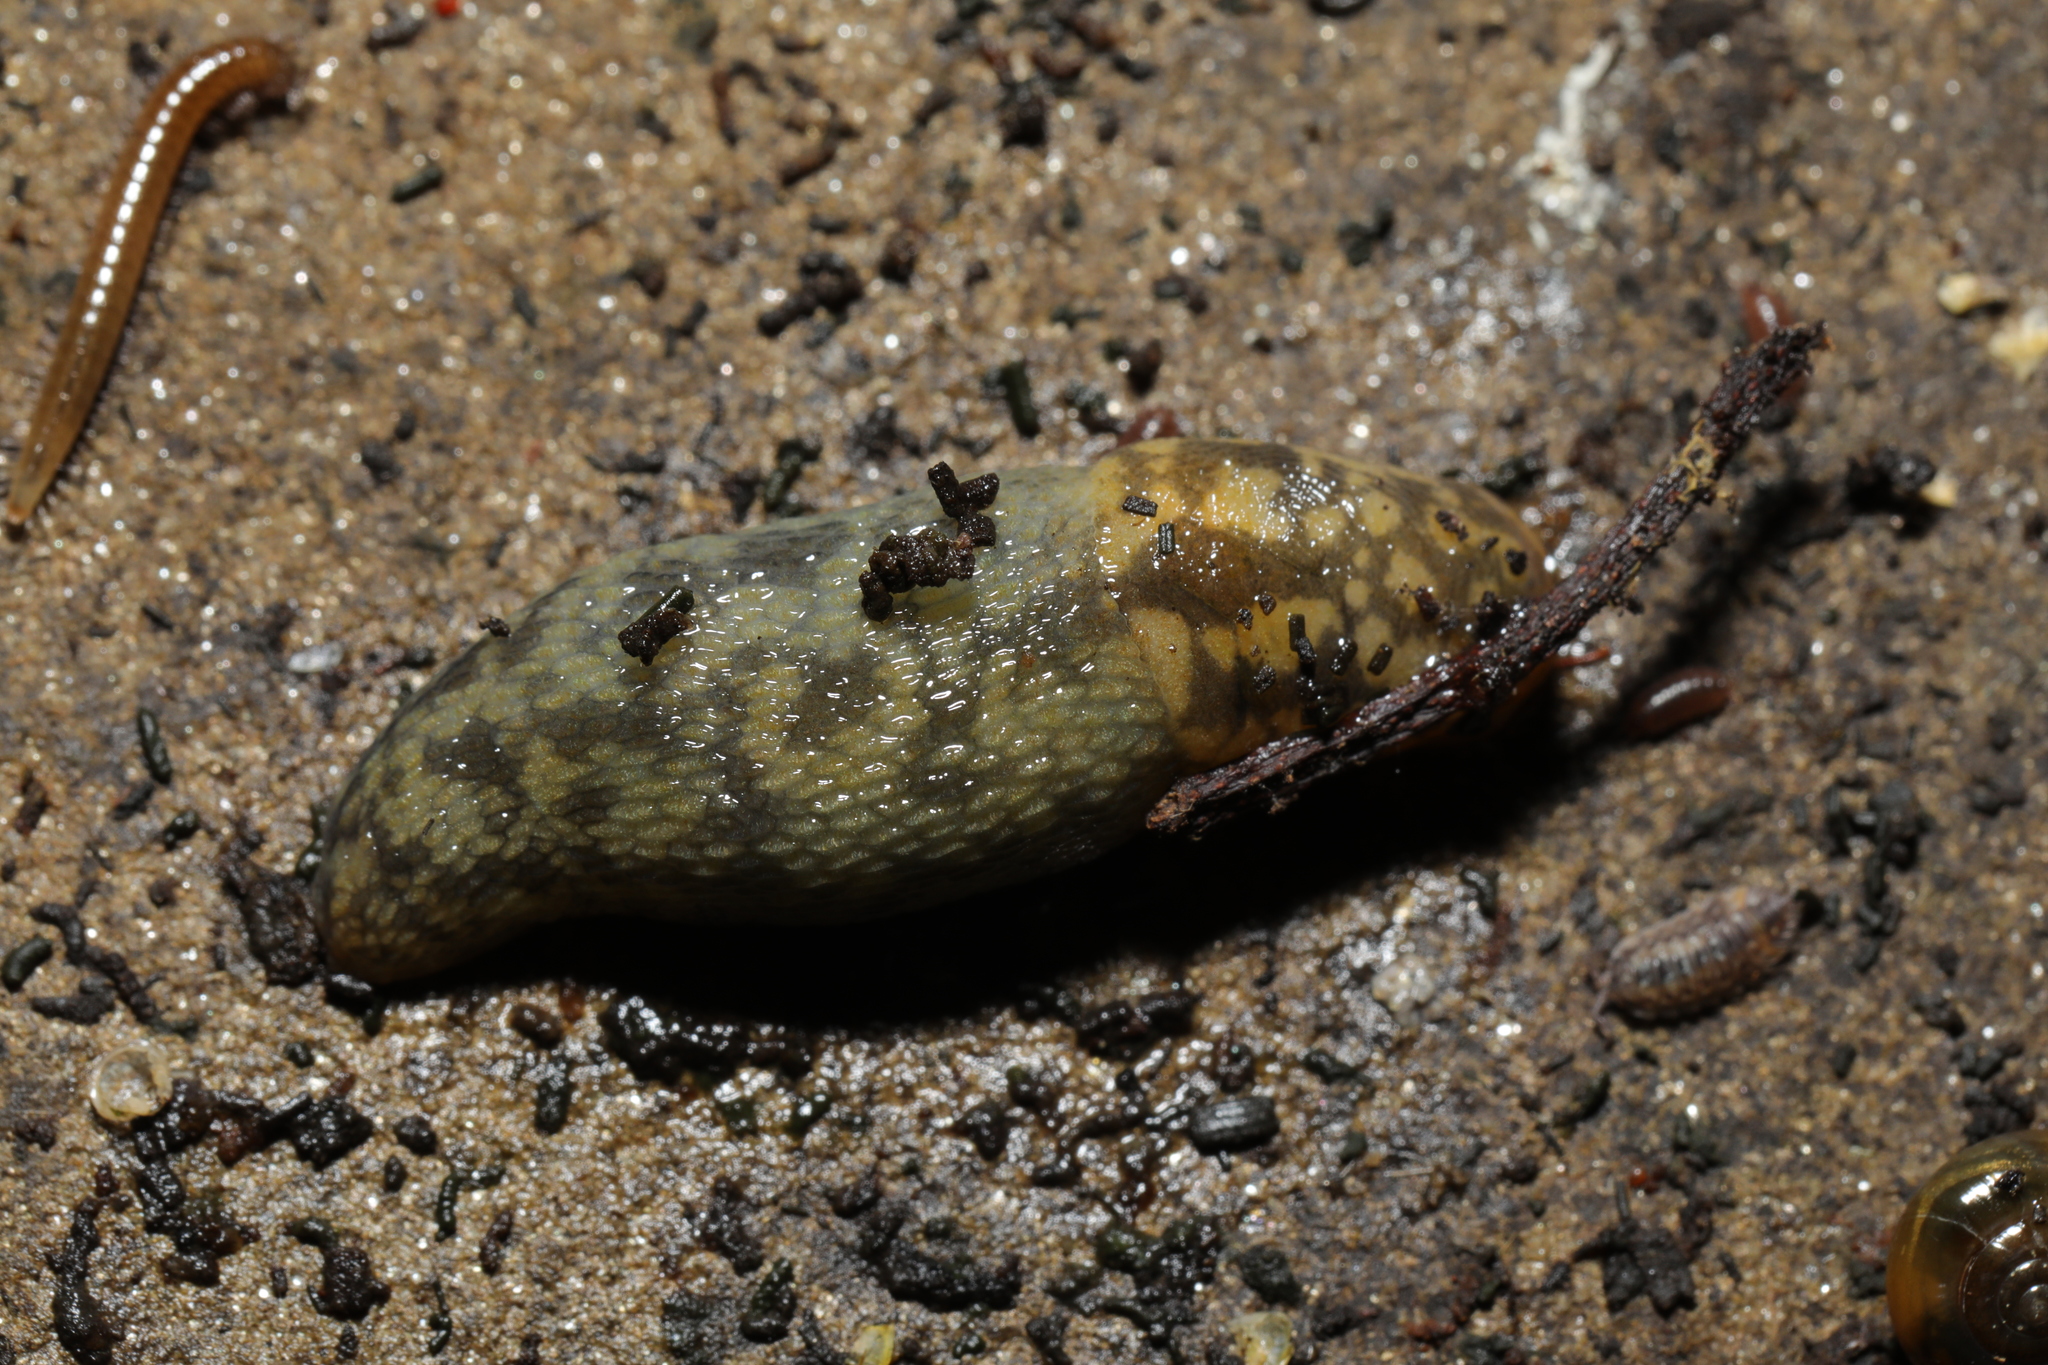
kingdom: Animalia
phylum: Mollusca
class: Gastropoda
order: Stylommatophora
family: Limacidae
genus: Limacus
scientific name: Limacus maculatus
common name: Irish yellow slug
